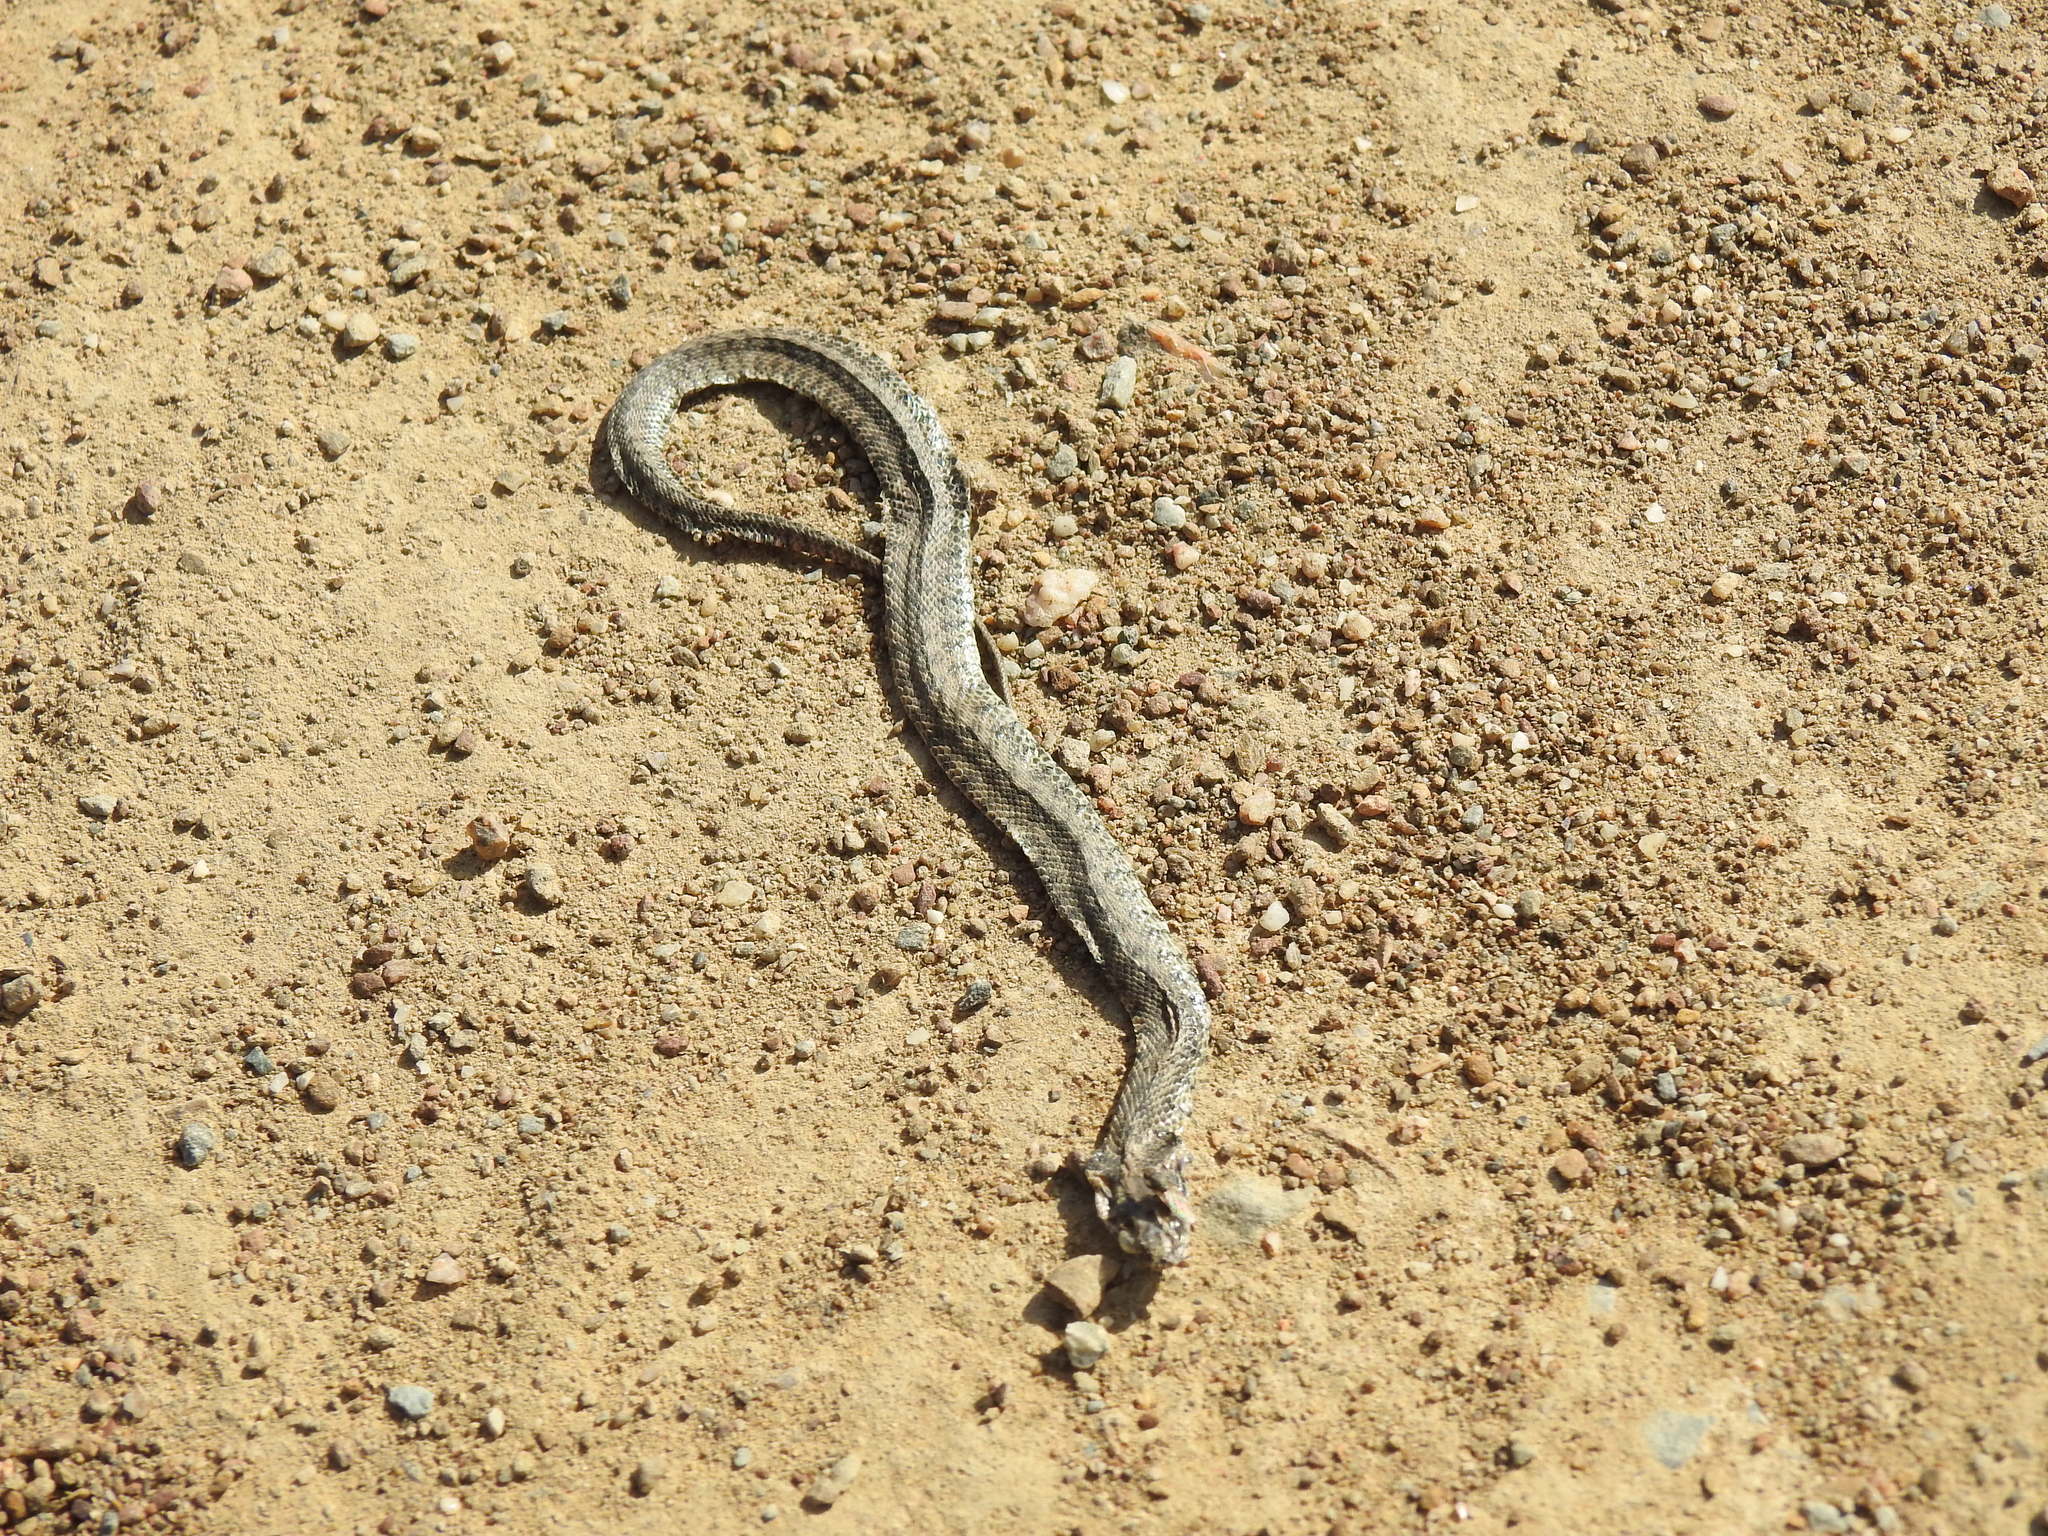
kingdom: Animalia
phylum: Chordata
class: Squamata
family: Colubridae
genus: Natrix
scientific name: Natrix maura
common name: Viperine water snake
